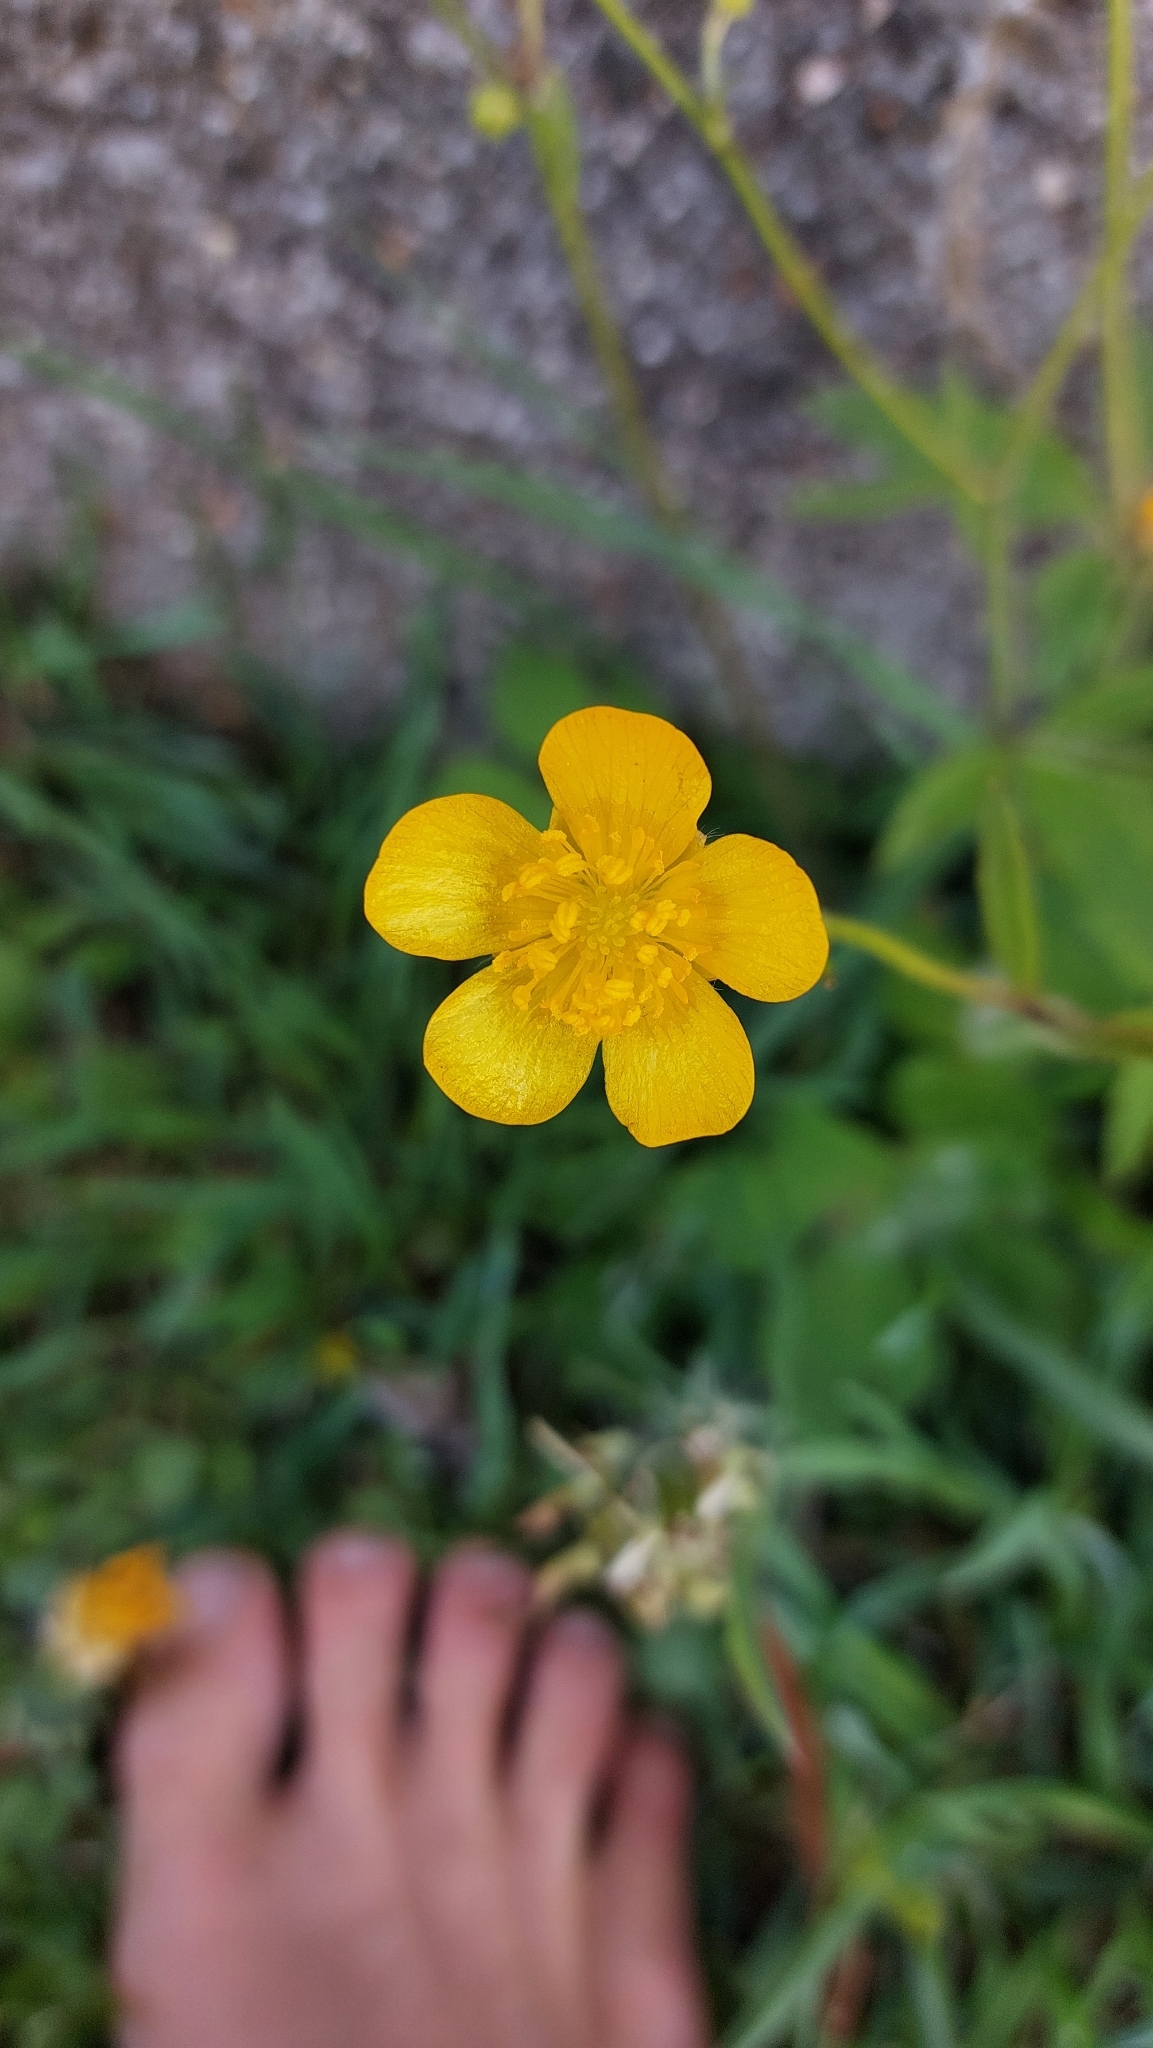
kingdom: Plantae
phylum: Tracheophyta
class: Magnoliopsida
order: Ranunculales
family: Ranunculaceae
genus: Ranunculus
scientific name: Ranunculus
